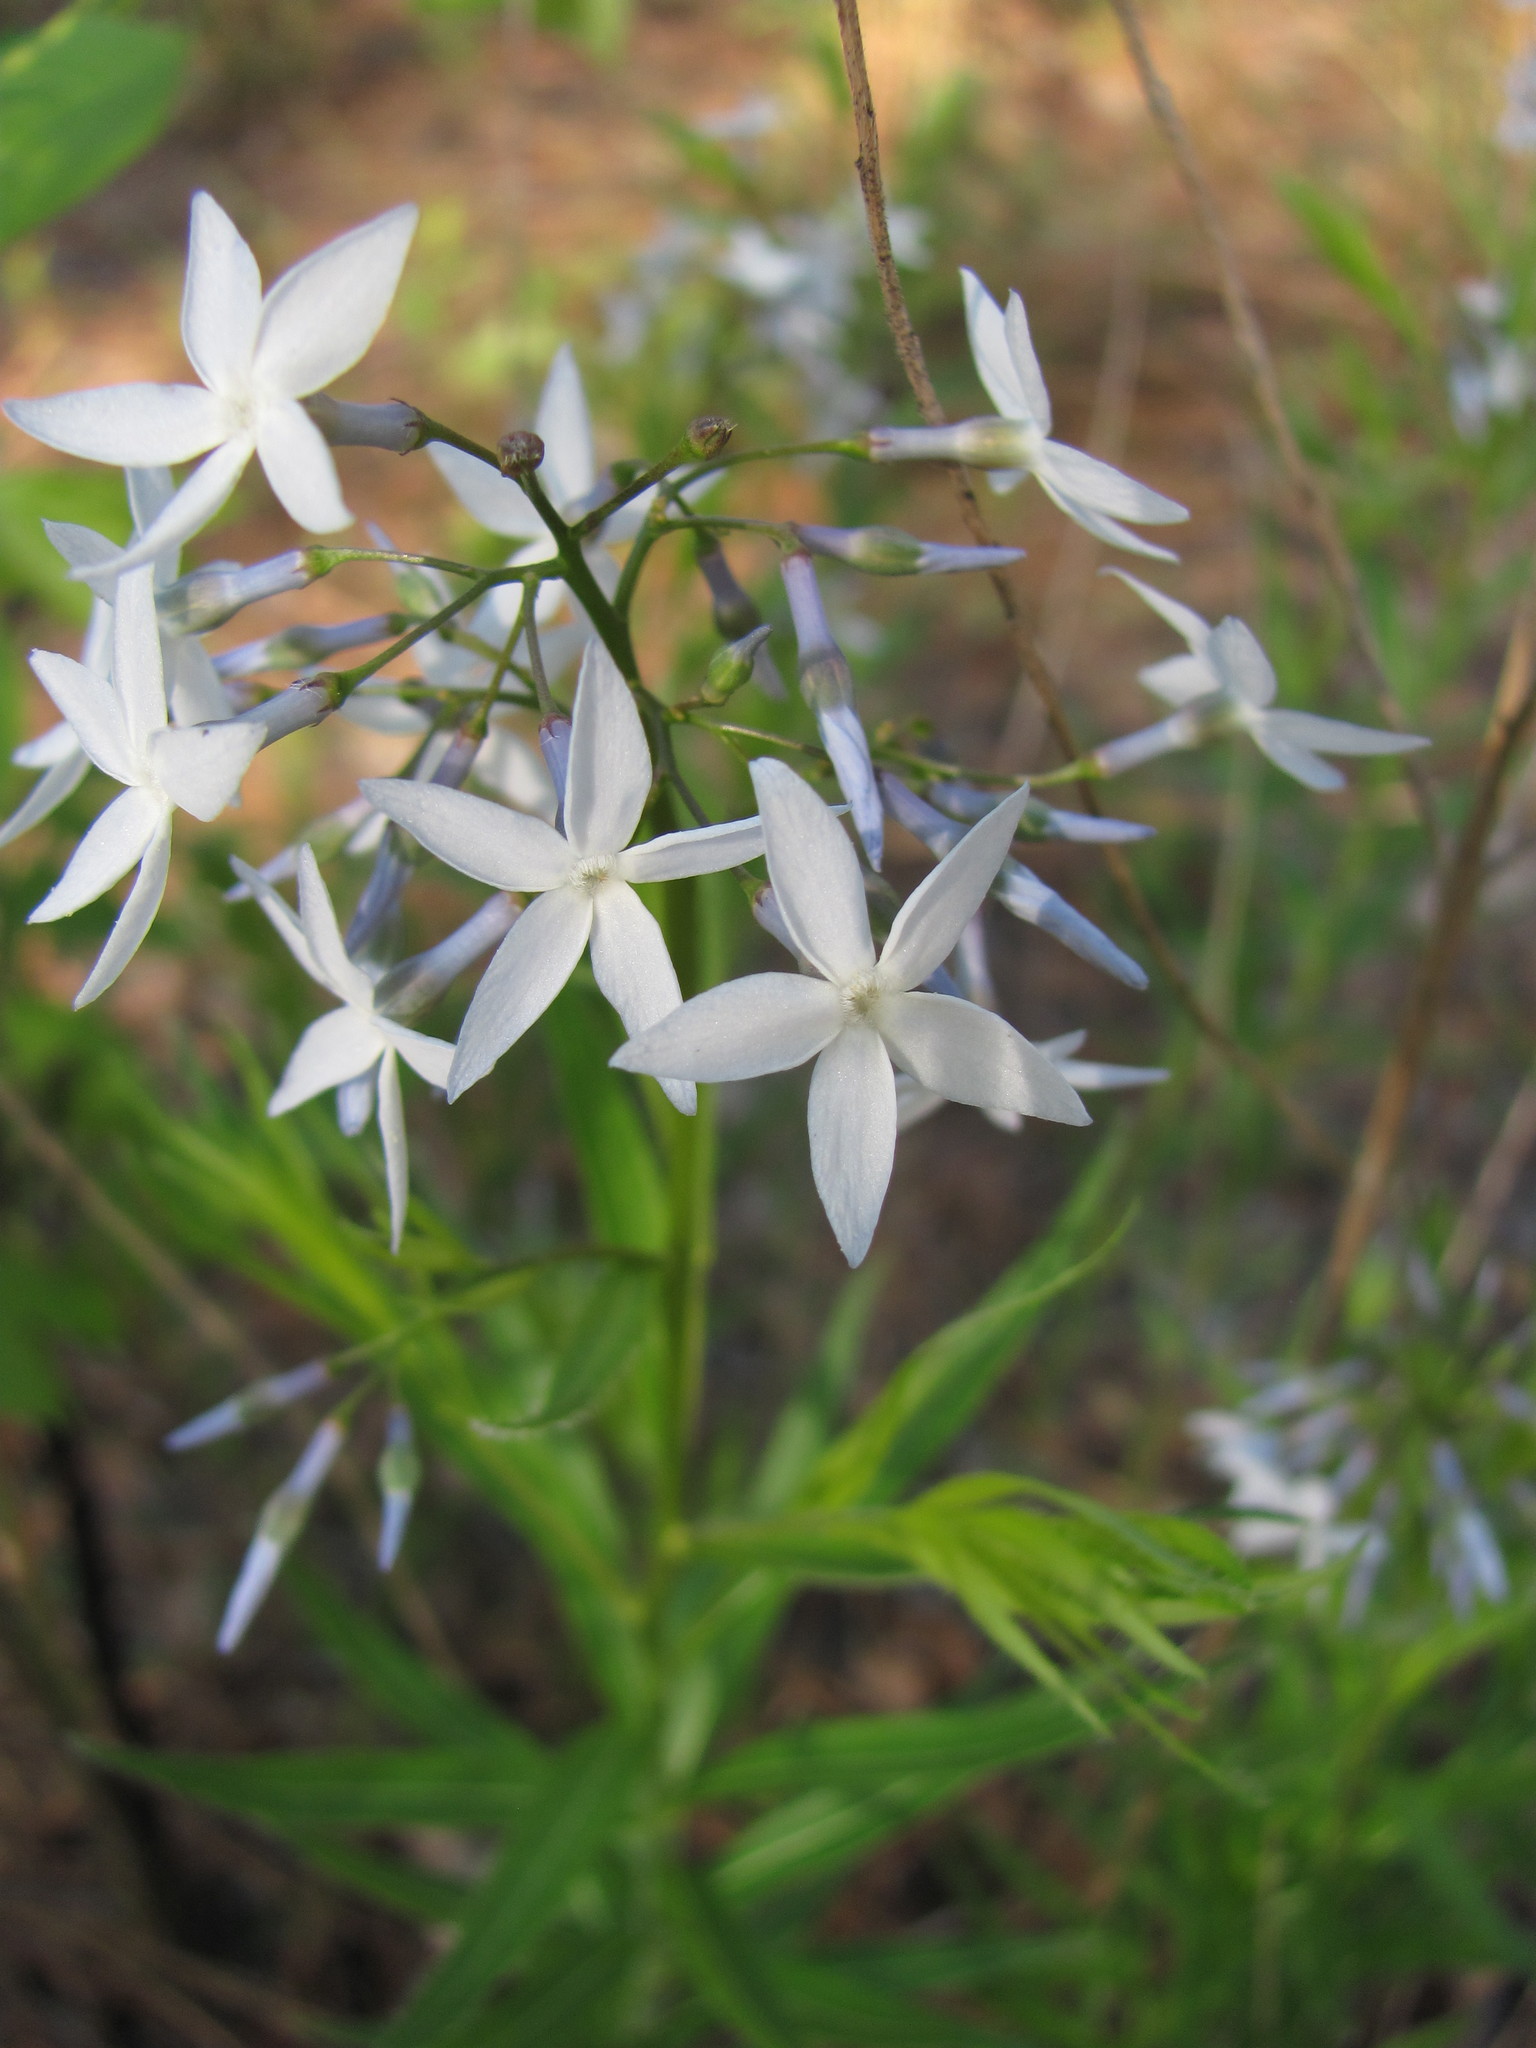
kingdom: Plantae
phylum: Tracheophyta
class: Magnoliopsida
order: Gentianales
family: Apocynaceae
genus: Amsonia
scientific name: Amsonia ciliata
